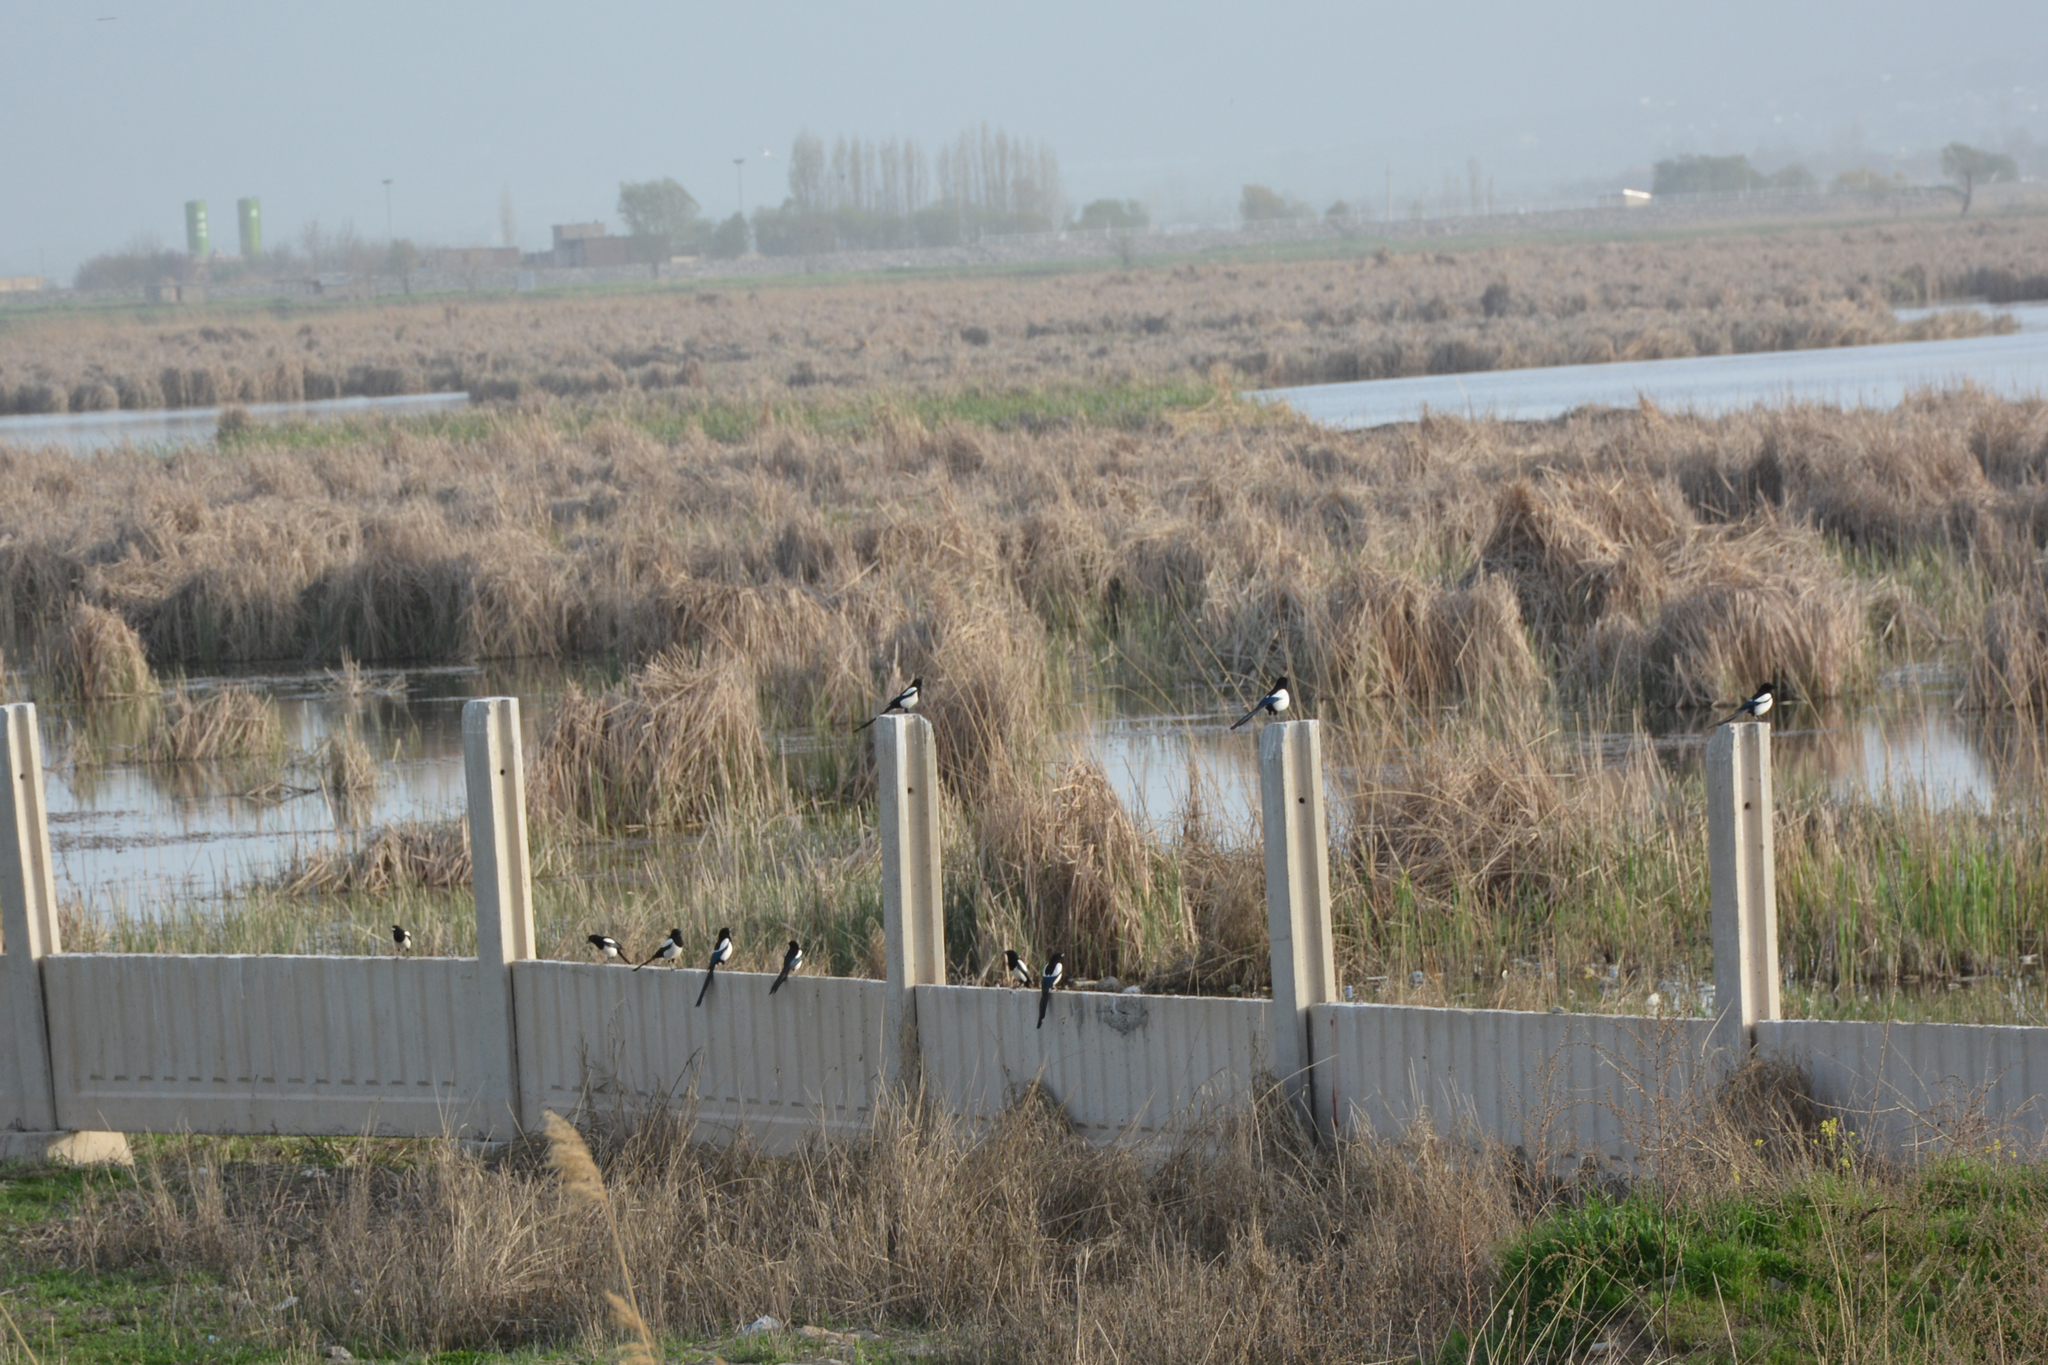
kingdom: Animalia
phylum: Chordata
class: Aves
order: Passeriformes
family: Corvidae
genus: Pica
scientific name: Pica pica
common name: Eurasian magpie
